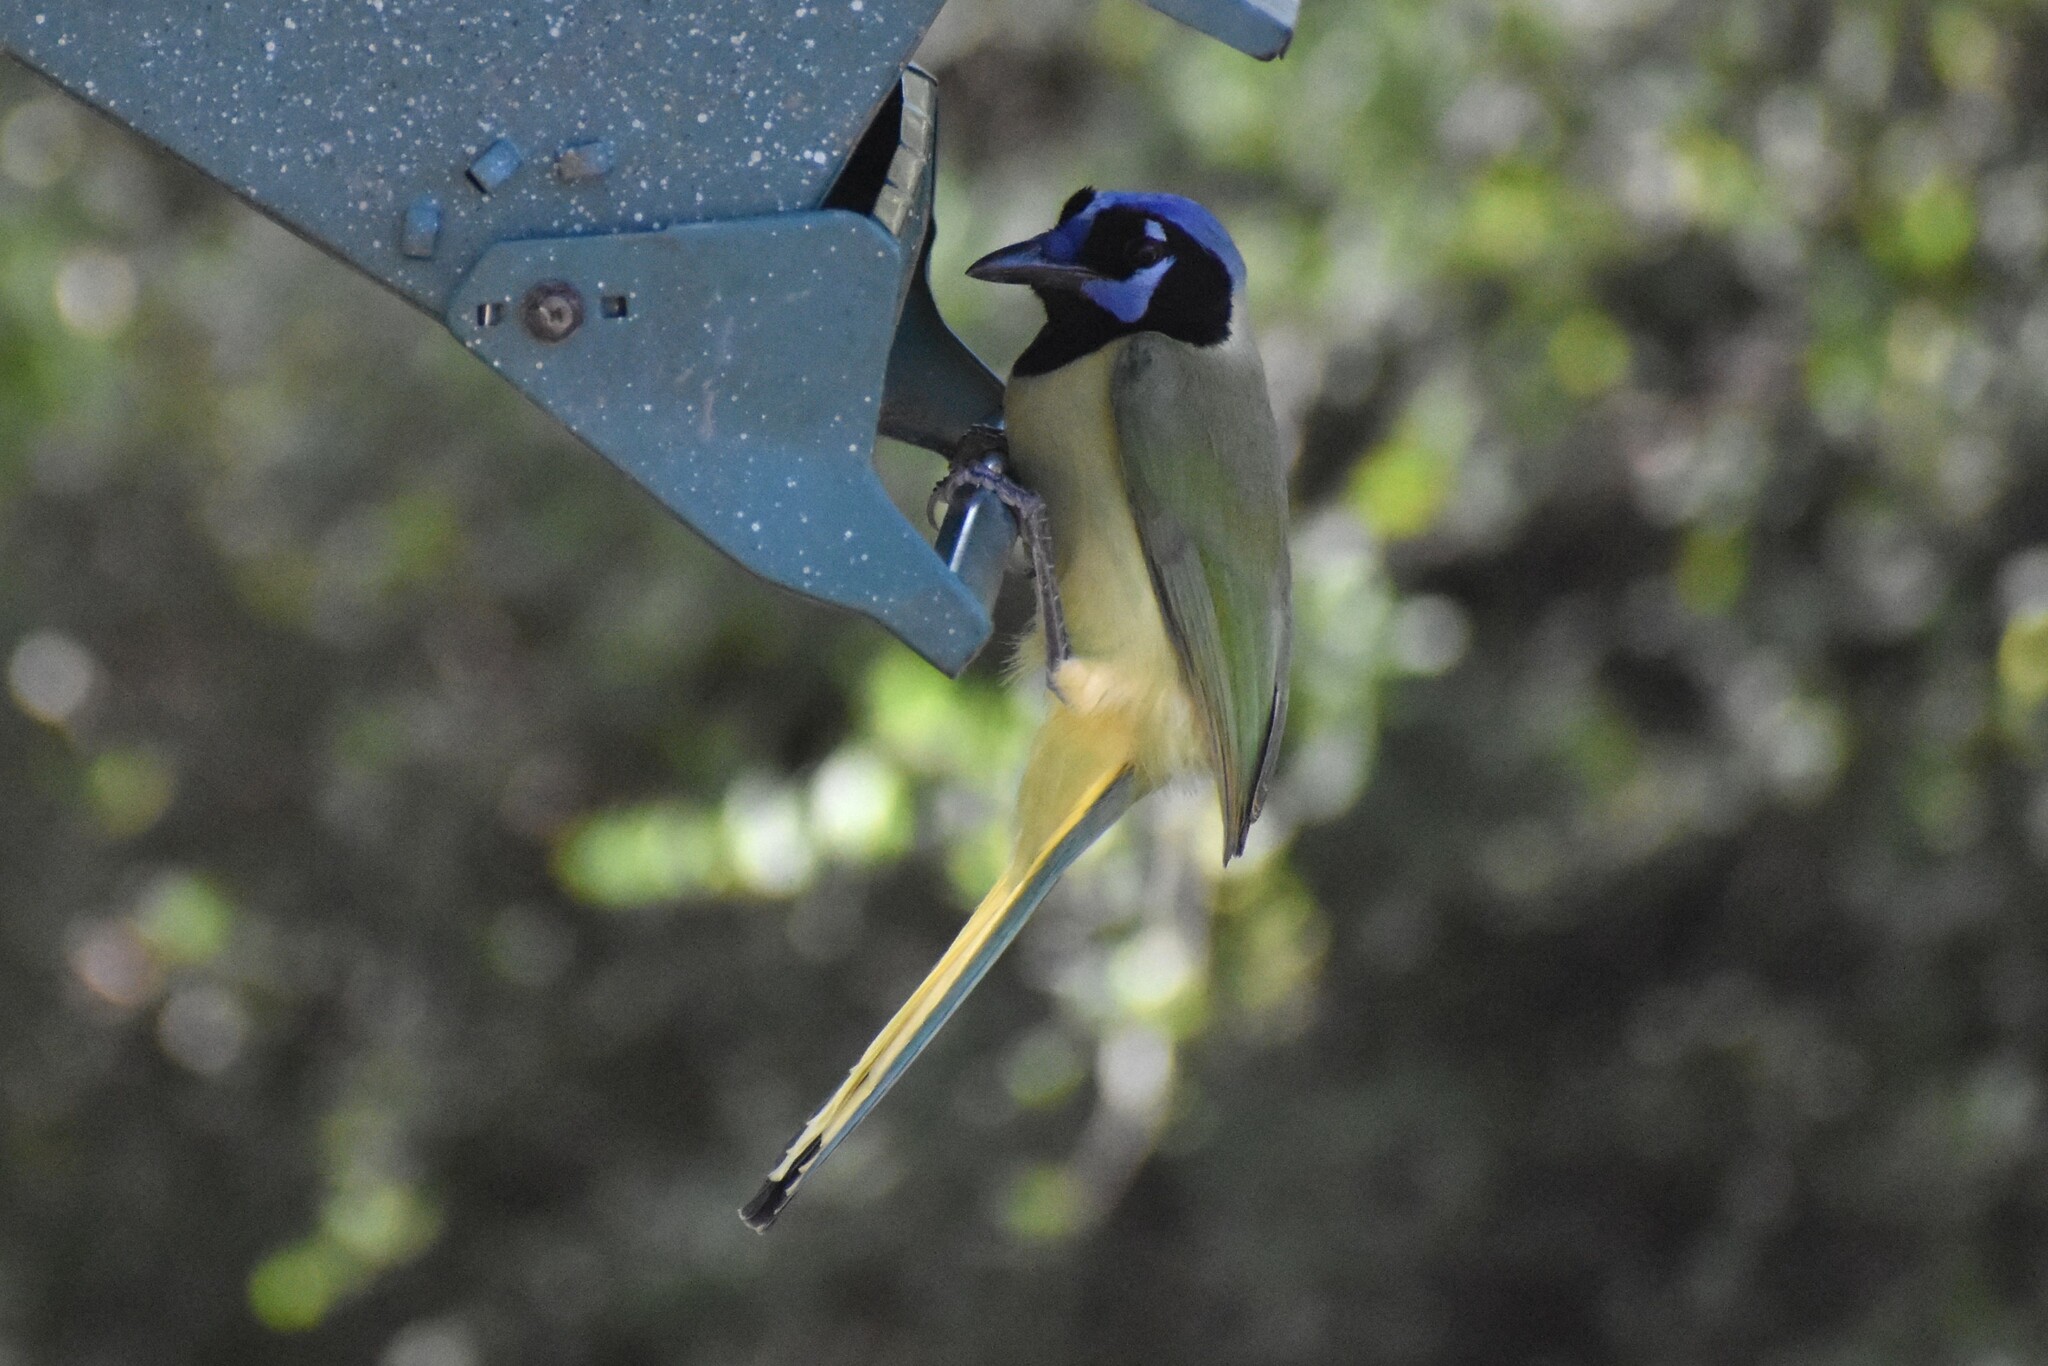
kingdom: Animalia
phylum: Chordata
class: Aves
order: Passeriformes
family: Corvidae
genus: Cyanocorax
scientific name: Cyanocorax yncas
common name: Green jay
